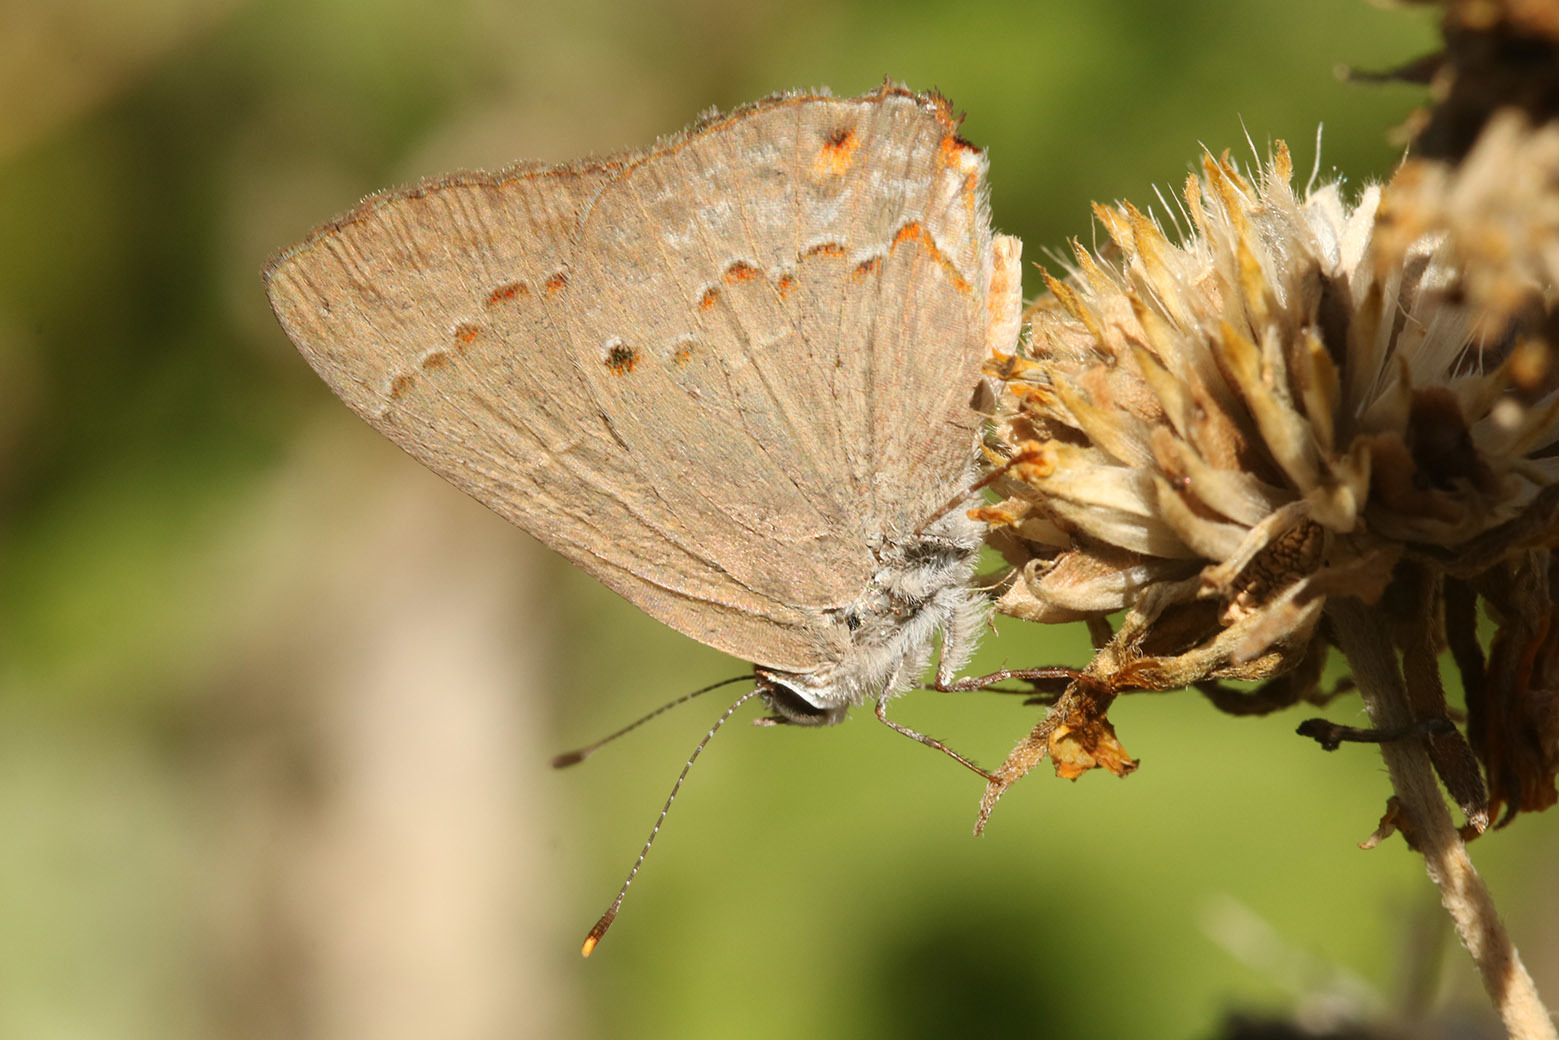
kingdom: Animalia
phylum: Arthropoda
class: Insecta
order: Lepidoptera
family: Lycaenidae
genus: Thecla
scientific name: Thecla rufofusca
